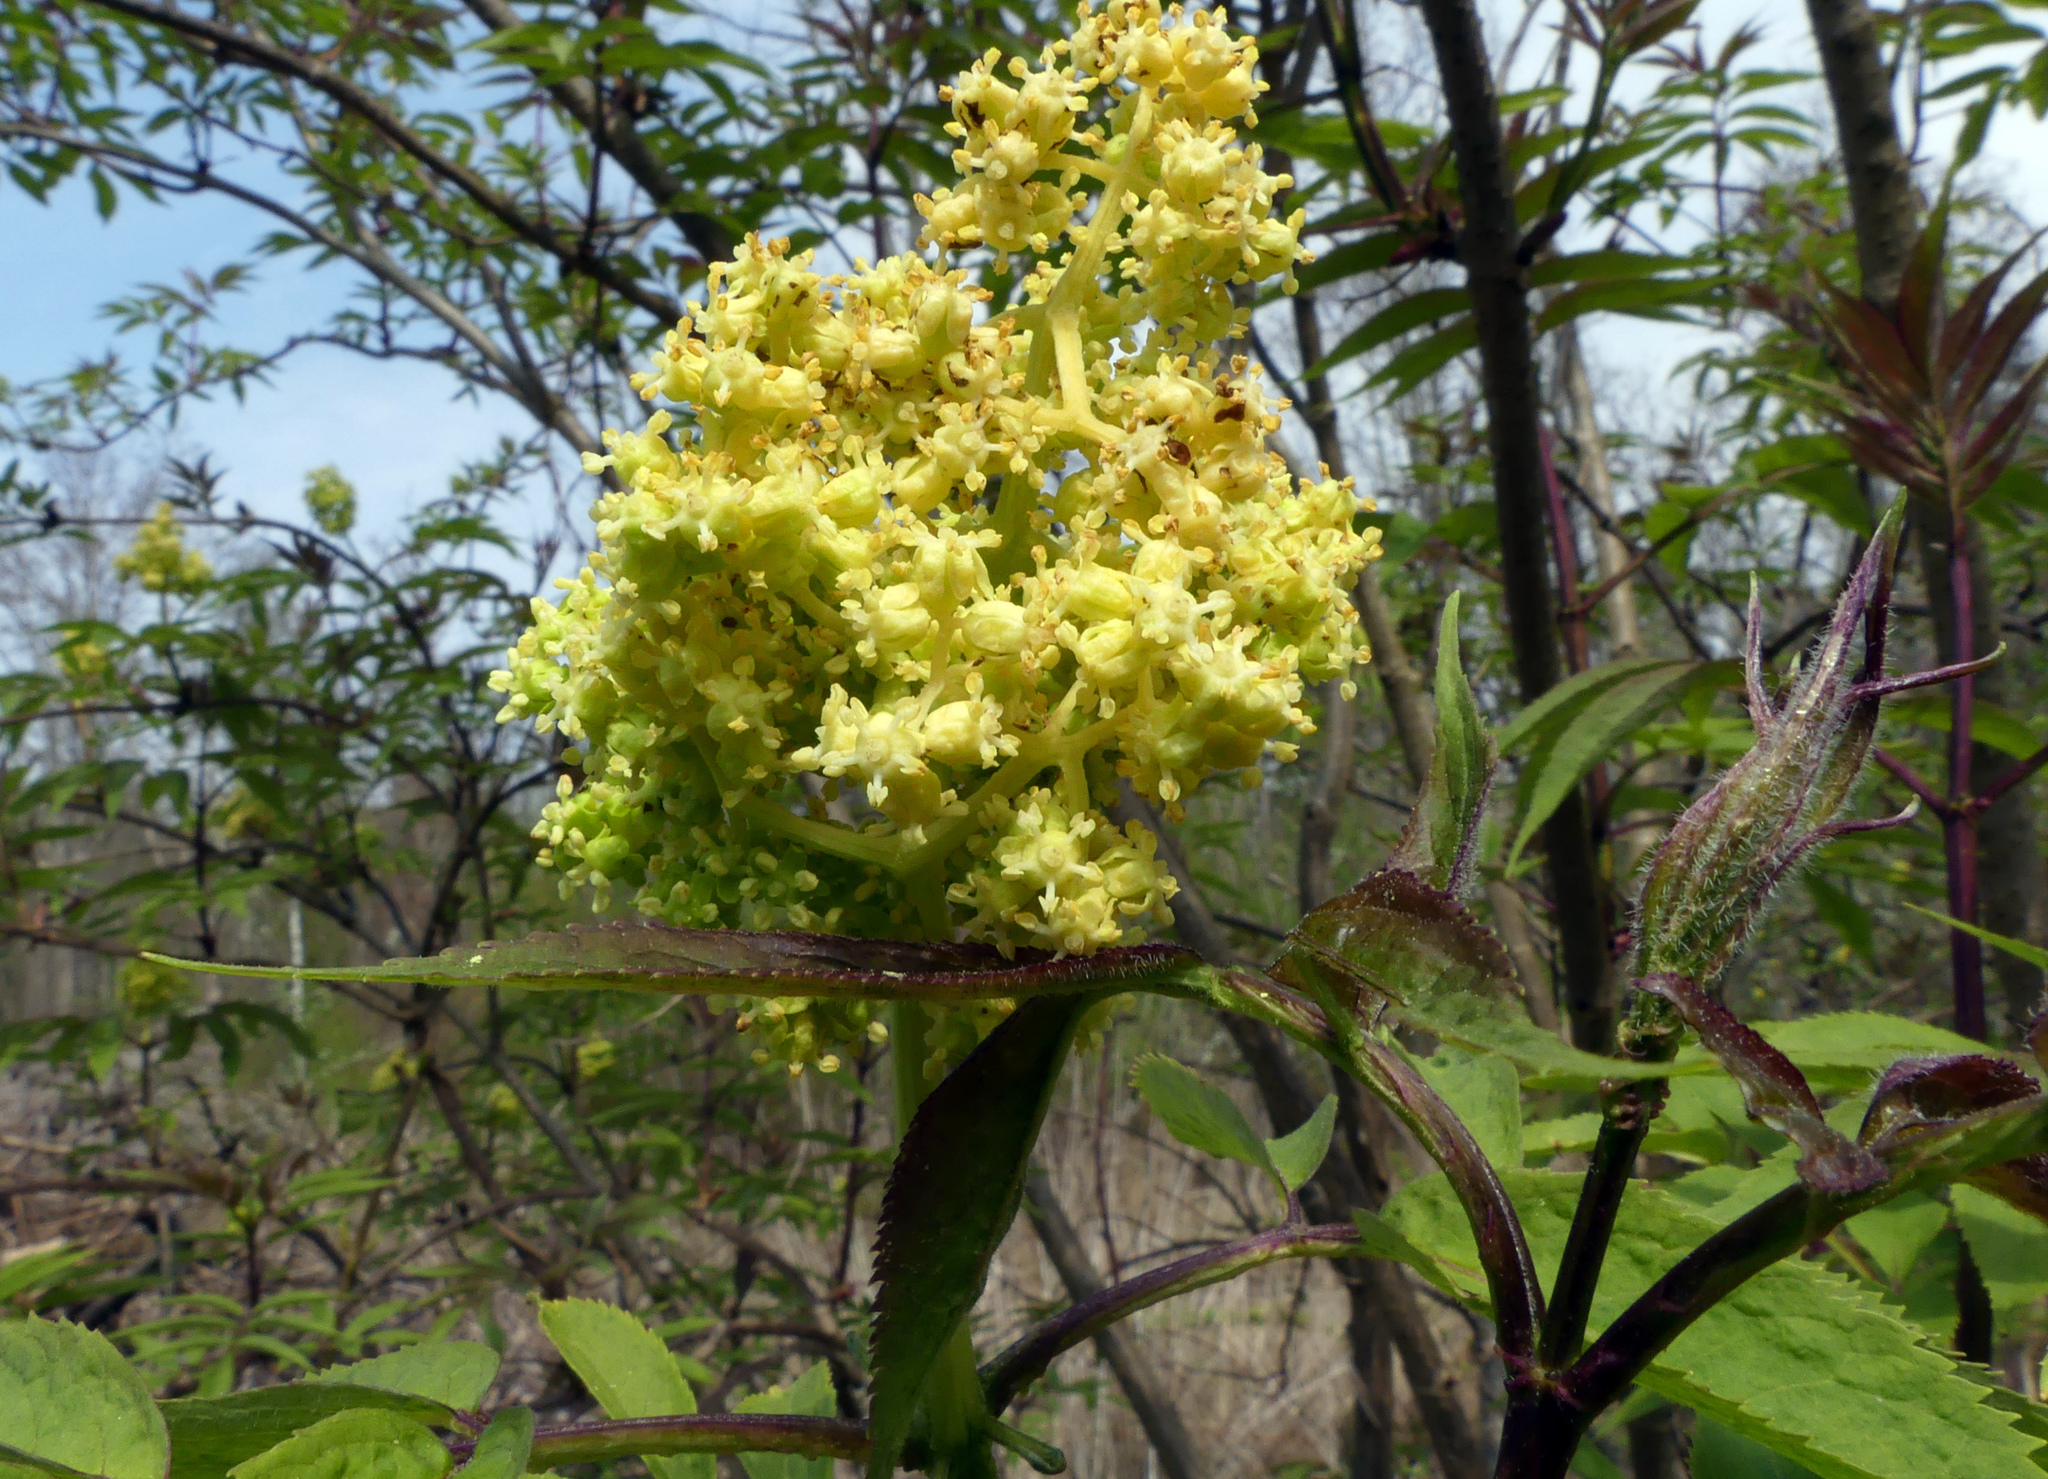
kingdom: Plantae
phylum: Tracheophyta
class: Magnoliopsida
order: Dipsacales
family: Viburnaceae
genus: Sambucus
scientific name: Sambucus racemosa
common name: Red-berried elder
